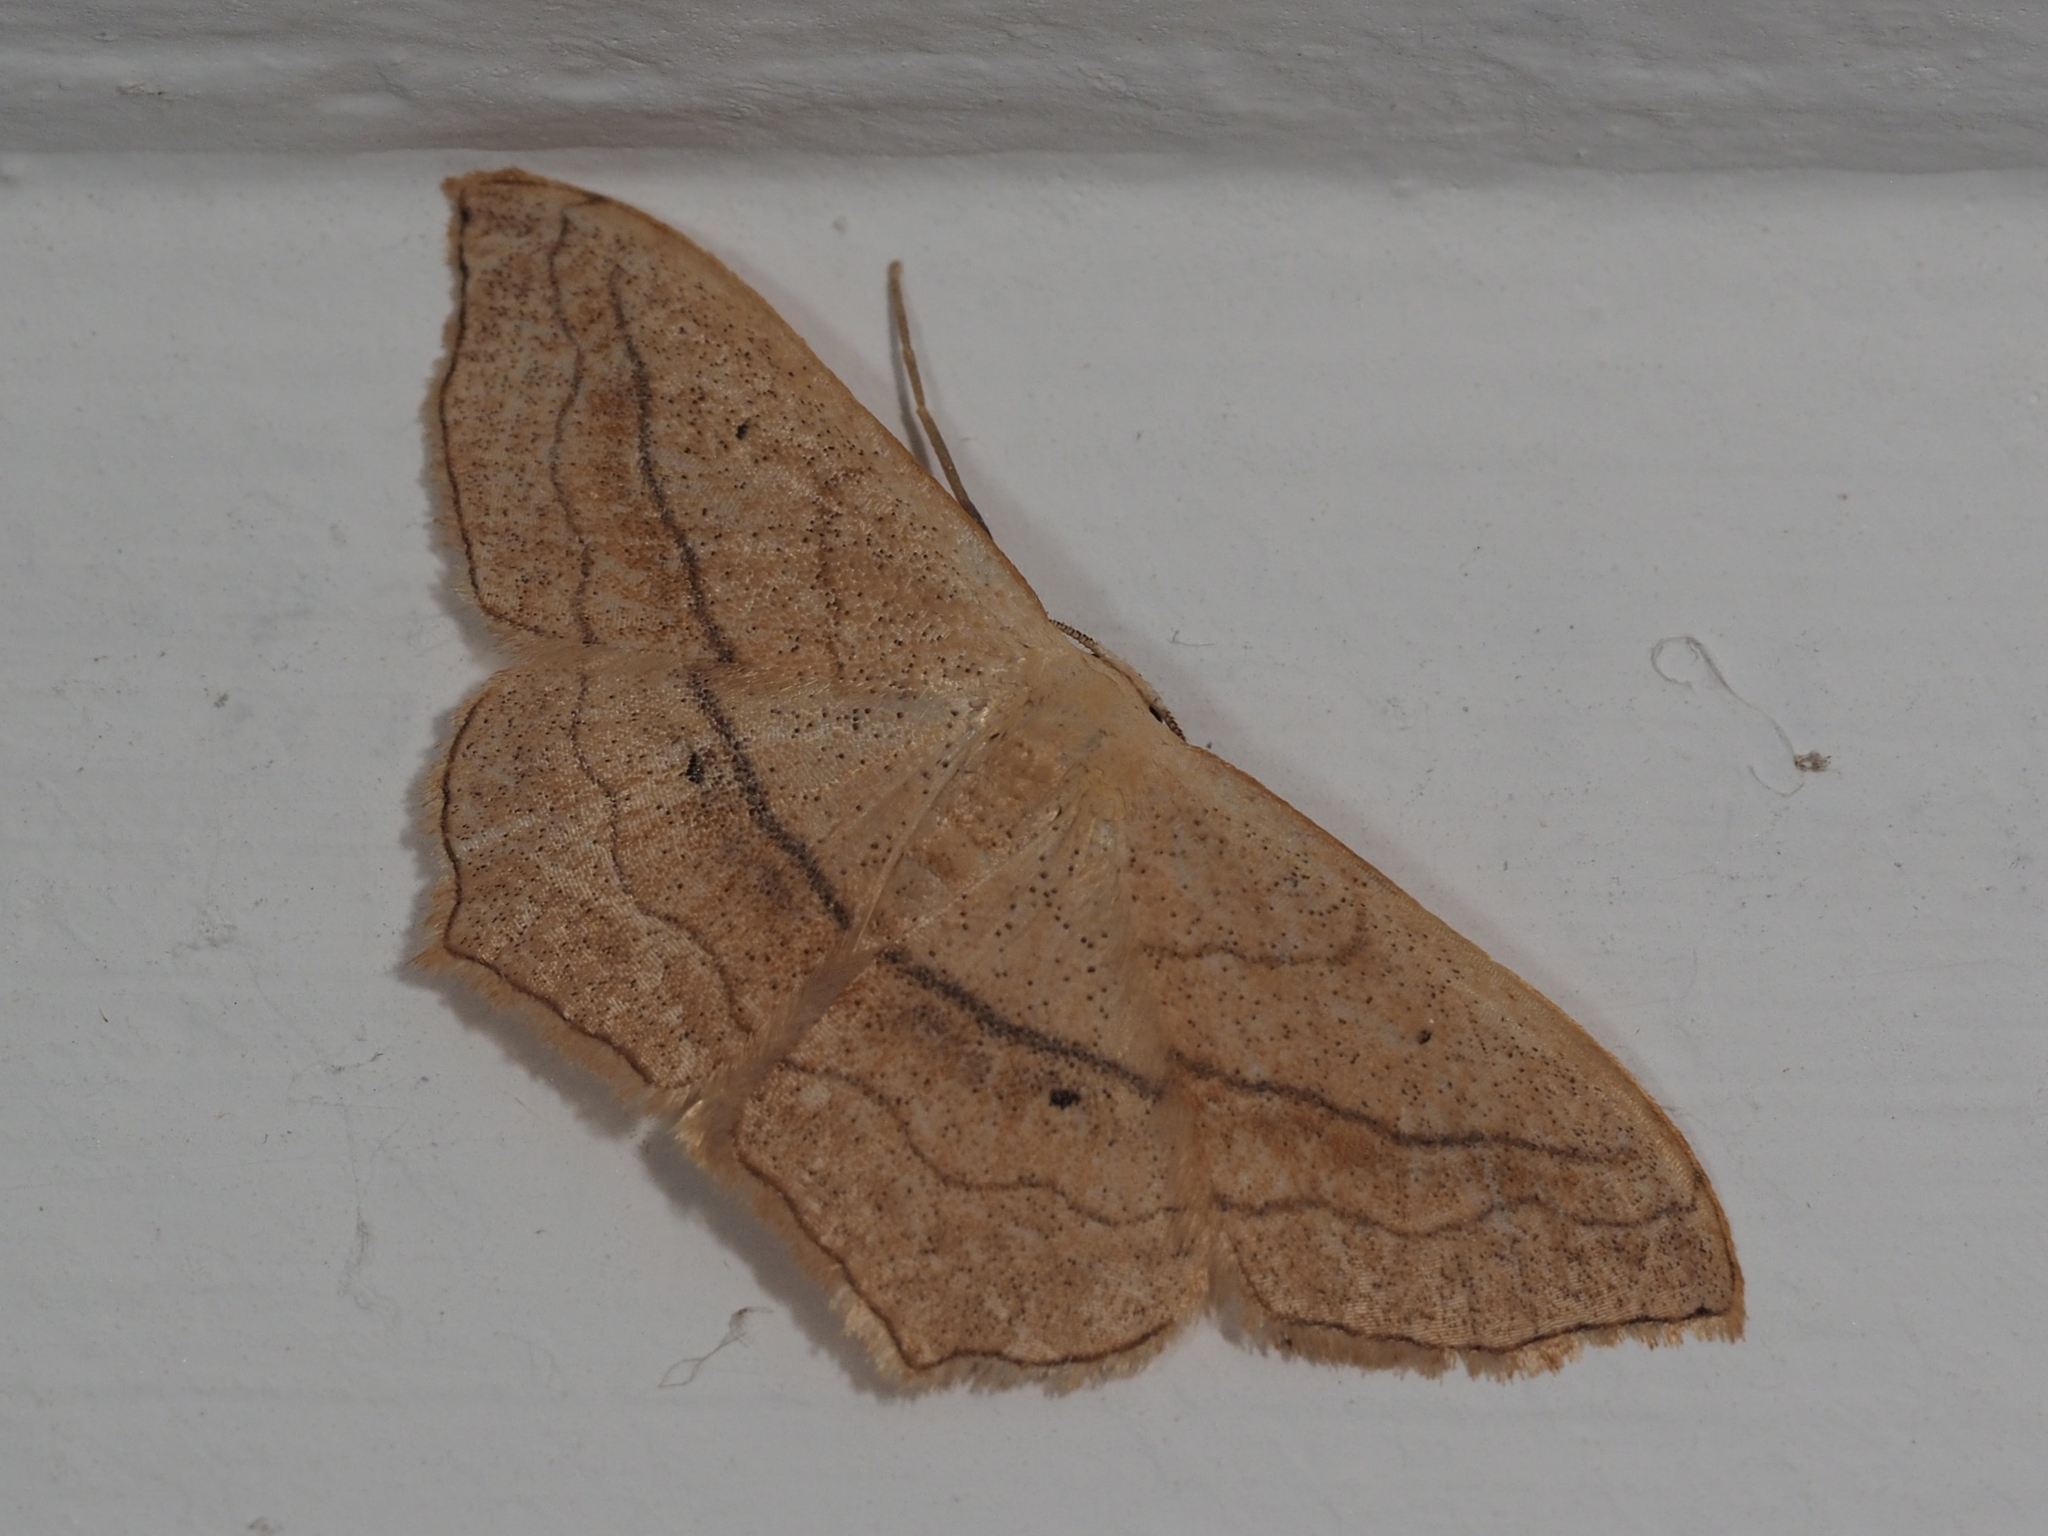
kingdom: Animalia
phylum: Arthropoda
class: Insecta
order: Lepidoptera
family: Geometridae
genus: Scopula
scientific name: Scopula imitaria
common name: Small blood-vein
